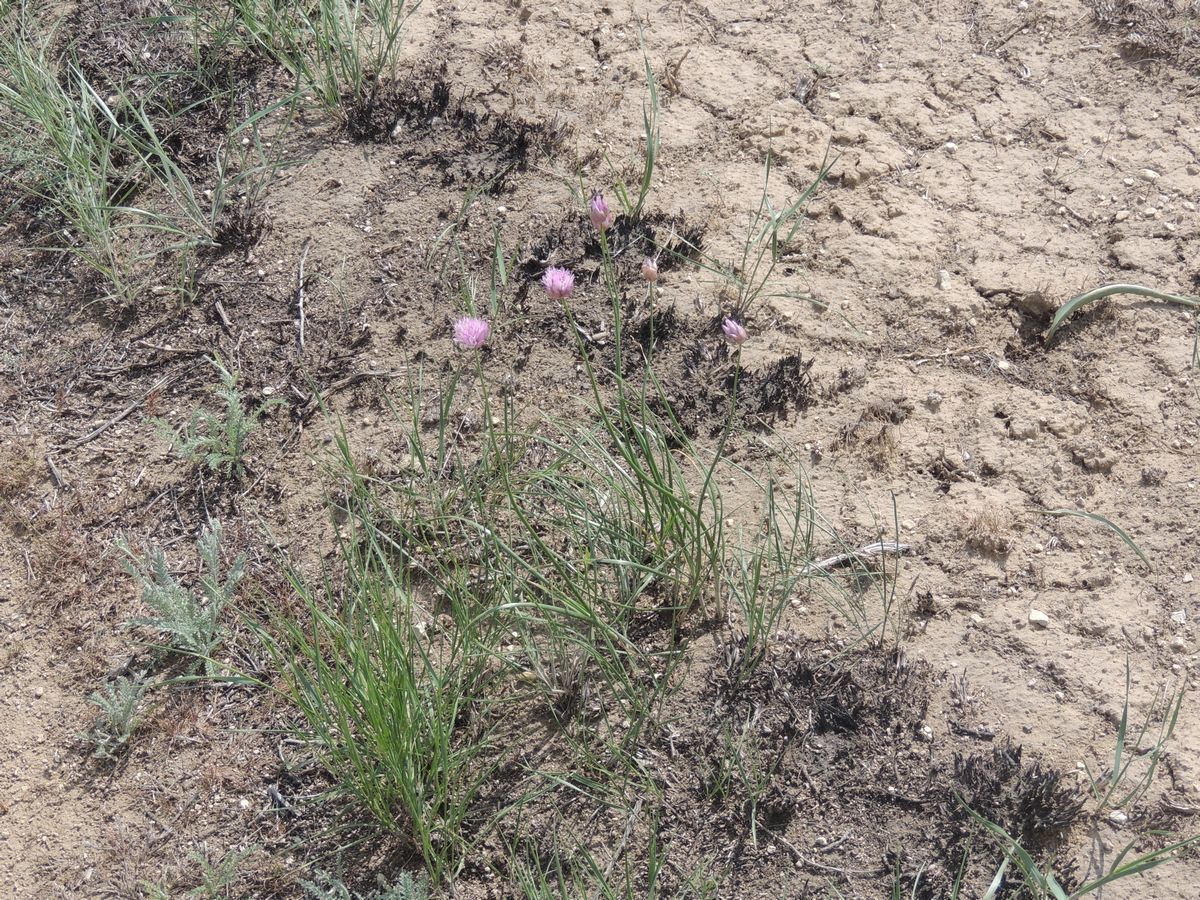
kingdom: Plantae
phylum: Tracheophyta
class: Liliopsida
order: Asparagales
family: Amaryllidaceae
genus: Allium
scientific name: Allium inderiense
